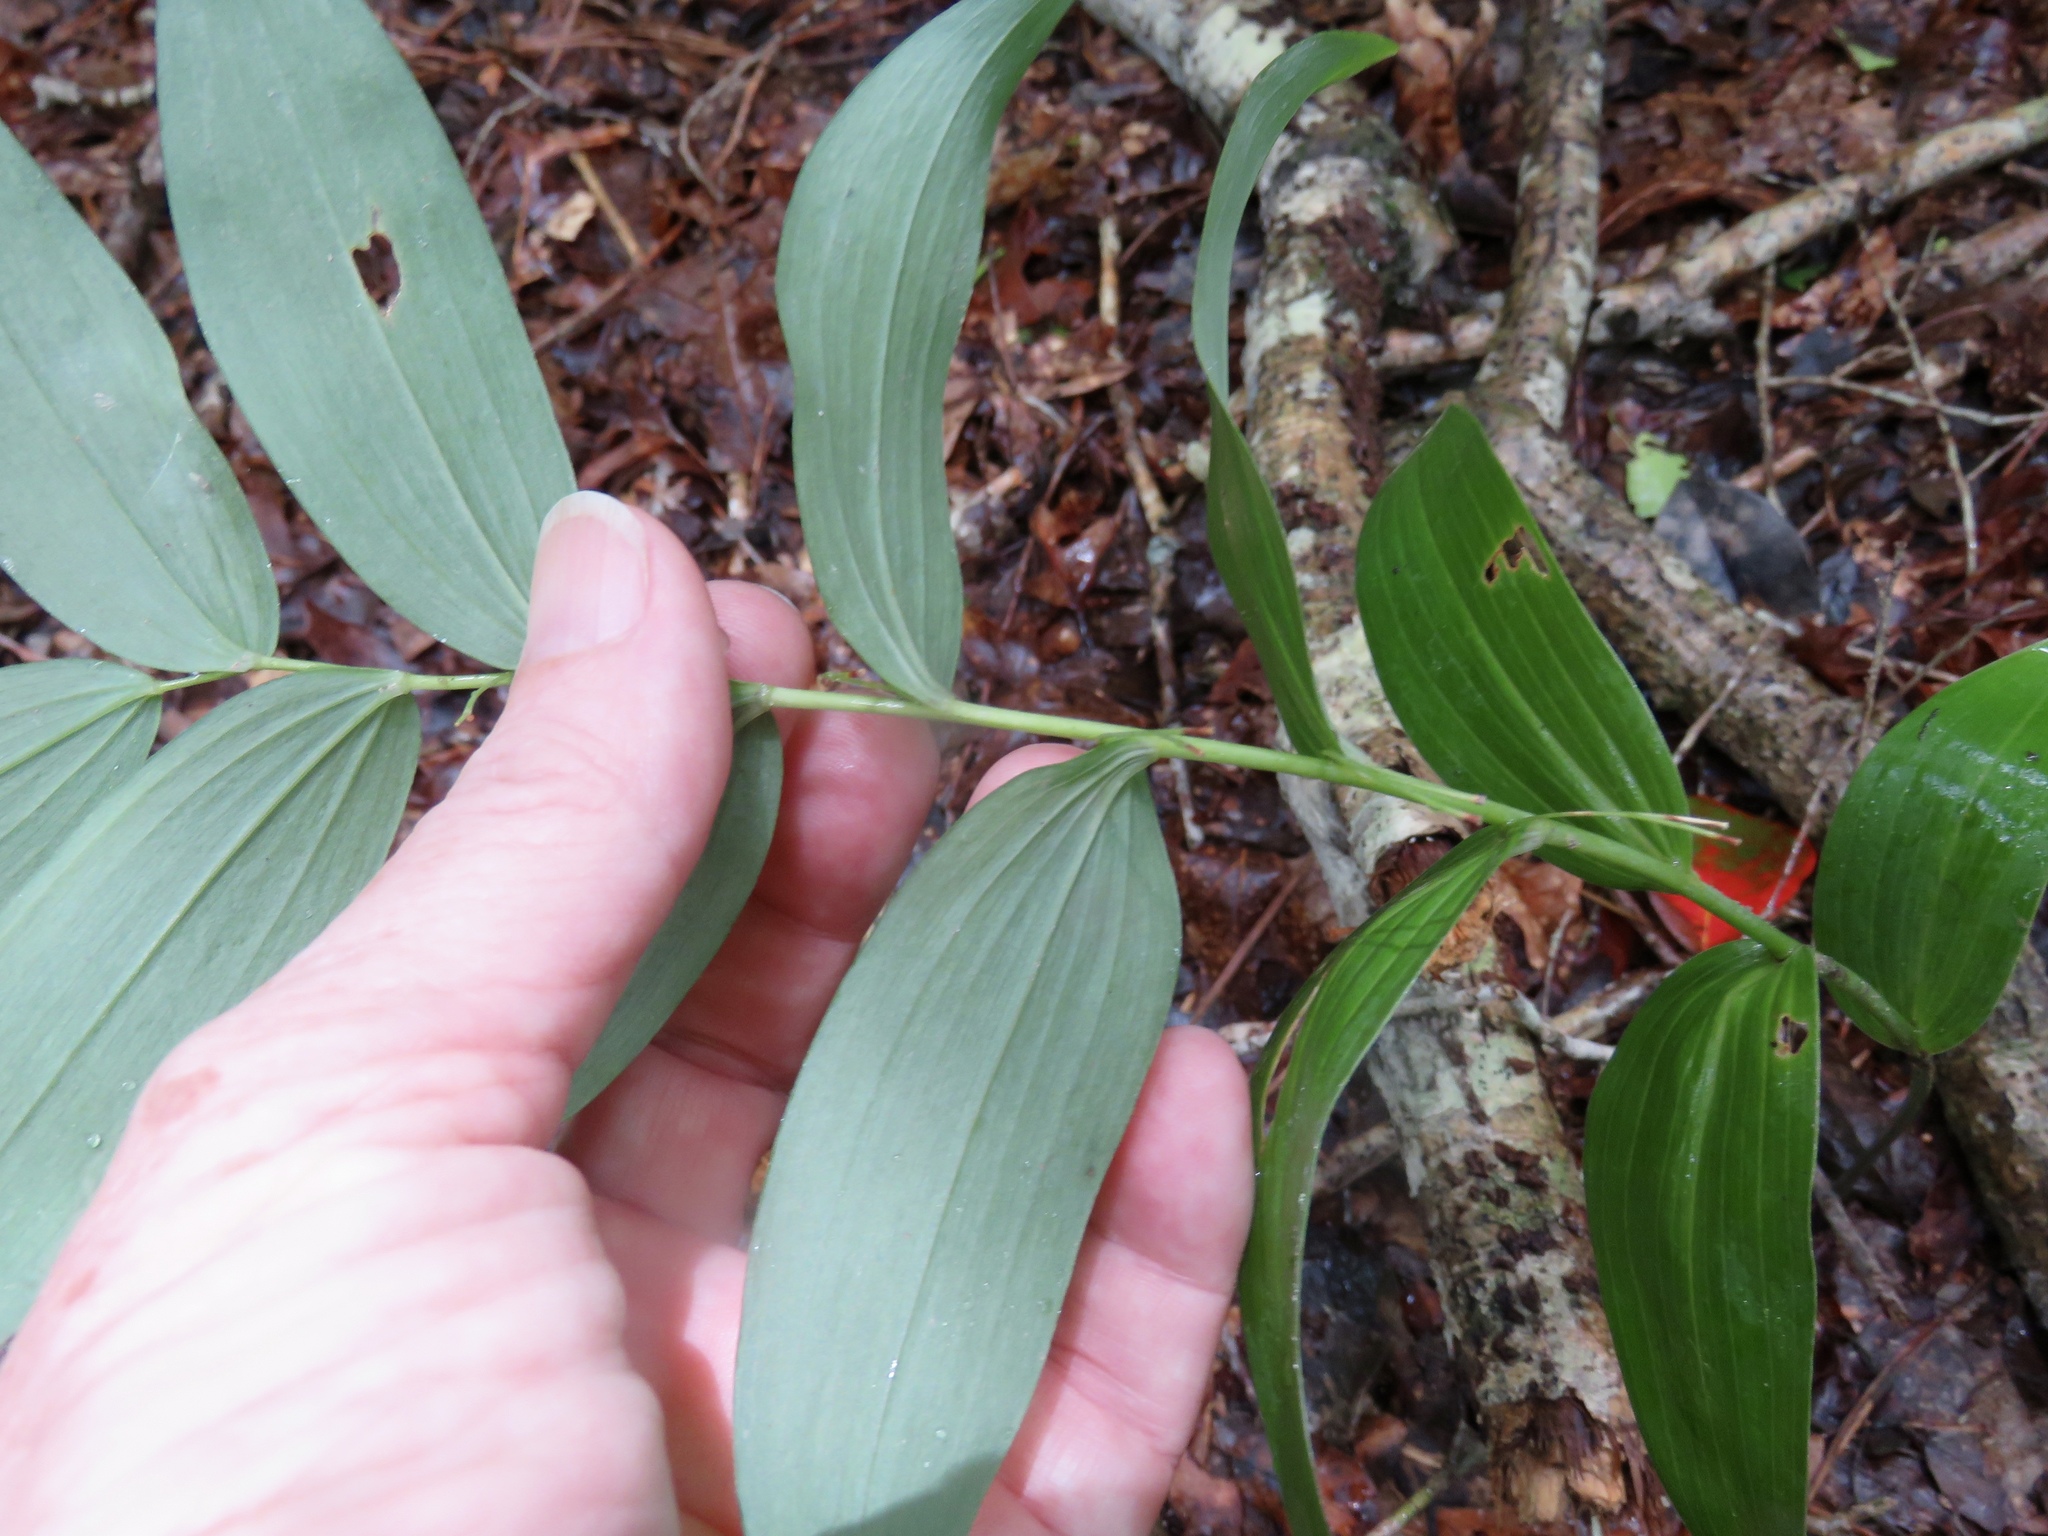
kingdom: Plantae
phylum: Tracheophyta
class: Liliopsida
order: Asparagales
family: Asparagaceae
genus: Polygonatum
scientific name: Polygonatum biflorum
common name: American solomon's-seal
